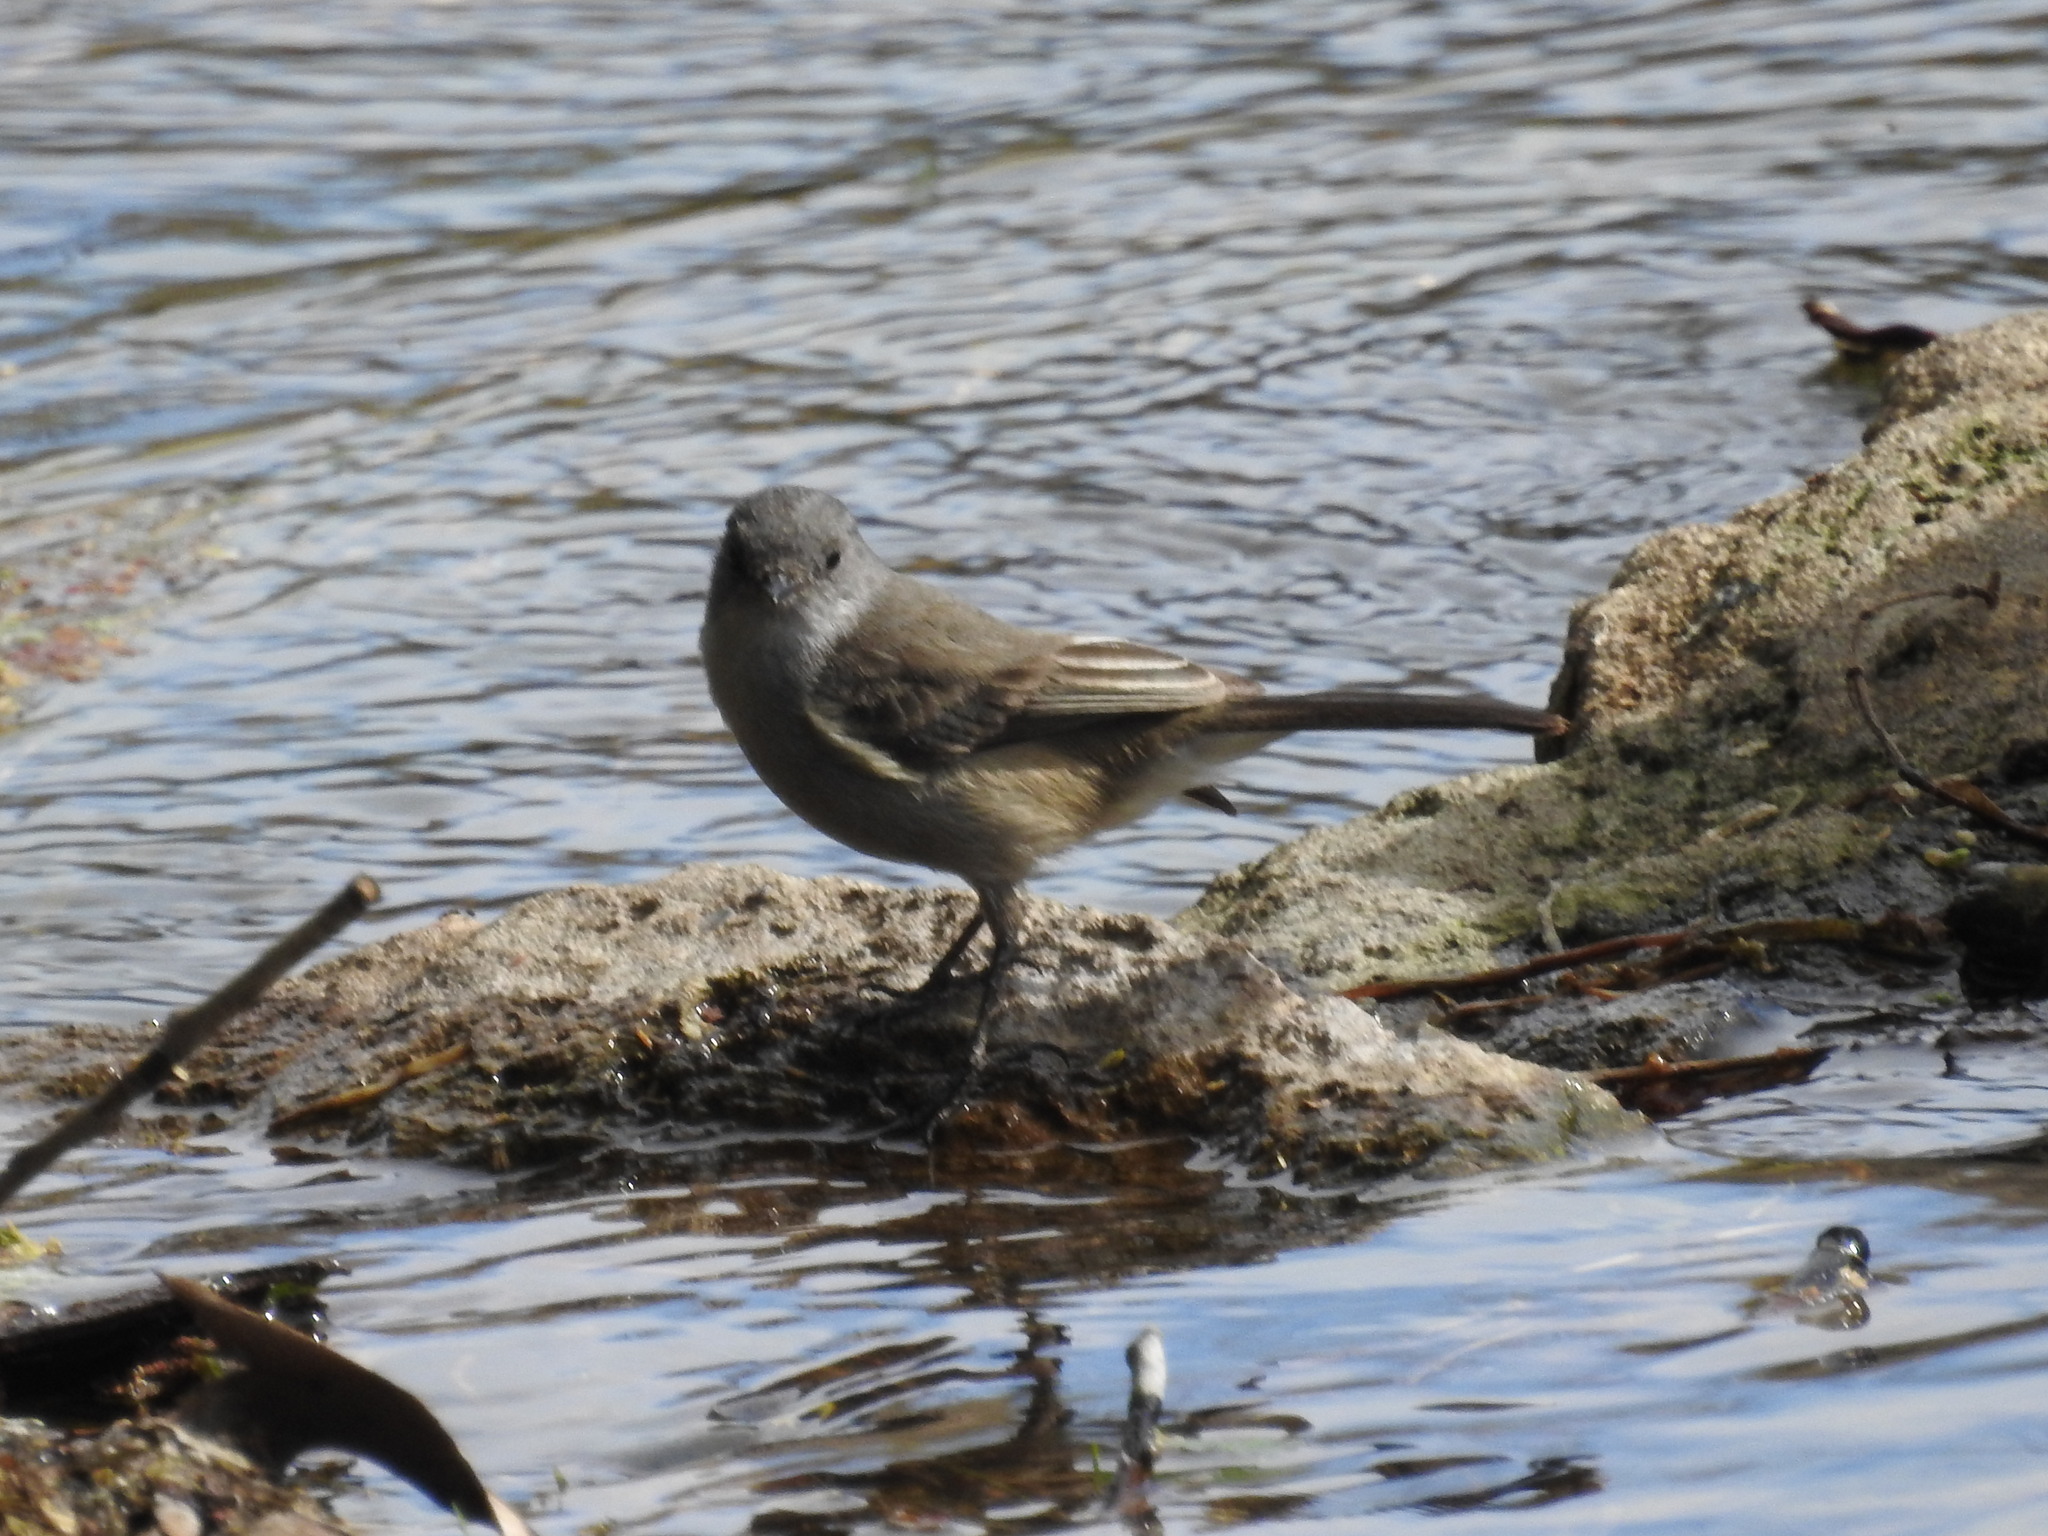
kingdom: Animalia
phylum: Chordata
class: Aves
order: Passeriformes
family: Tyrannidae
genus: Serpophaga
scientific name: Serpophaga nigricans
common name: Sooty tyrannulet
